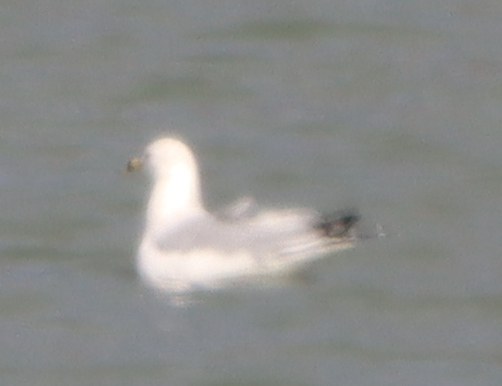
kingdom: Animalia
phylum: Chordata
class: Aves
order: Charadriiformes
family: Laridae
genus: Larus
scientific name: Larus delawarensis
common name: Ring-billed gull
